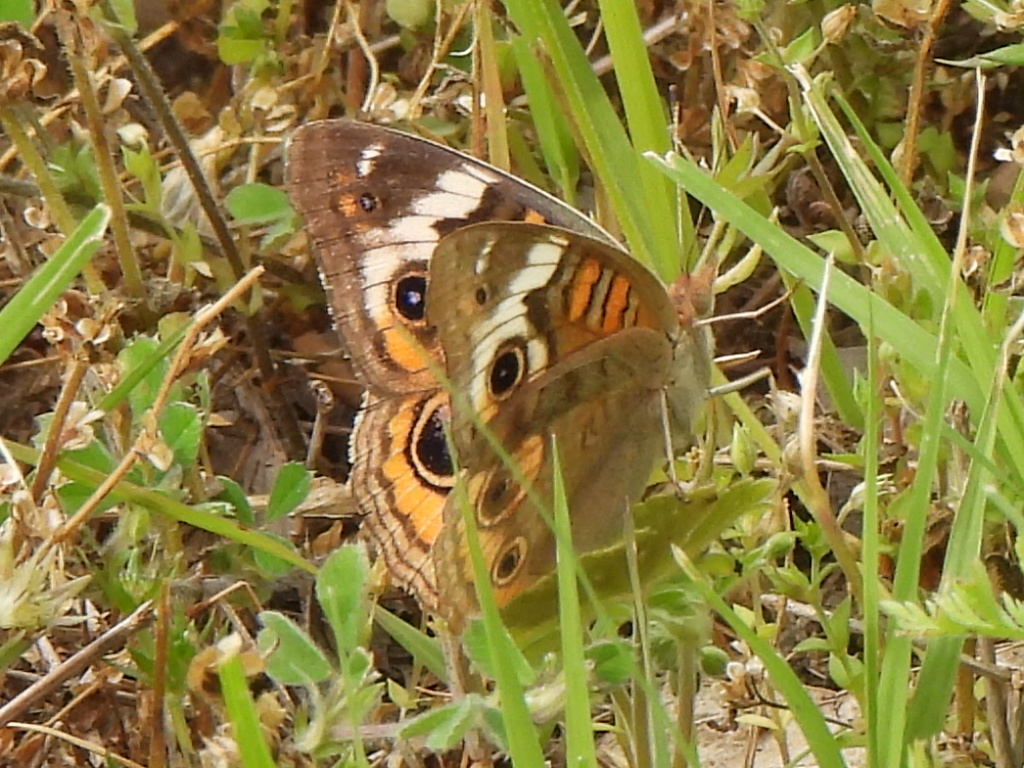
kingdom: Animalia
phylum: Arthropoda
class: Insecta
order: Lepidoptera
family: Nymphalidae
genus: Junonia
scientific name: Junonia coenia
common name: Common buckeye
